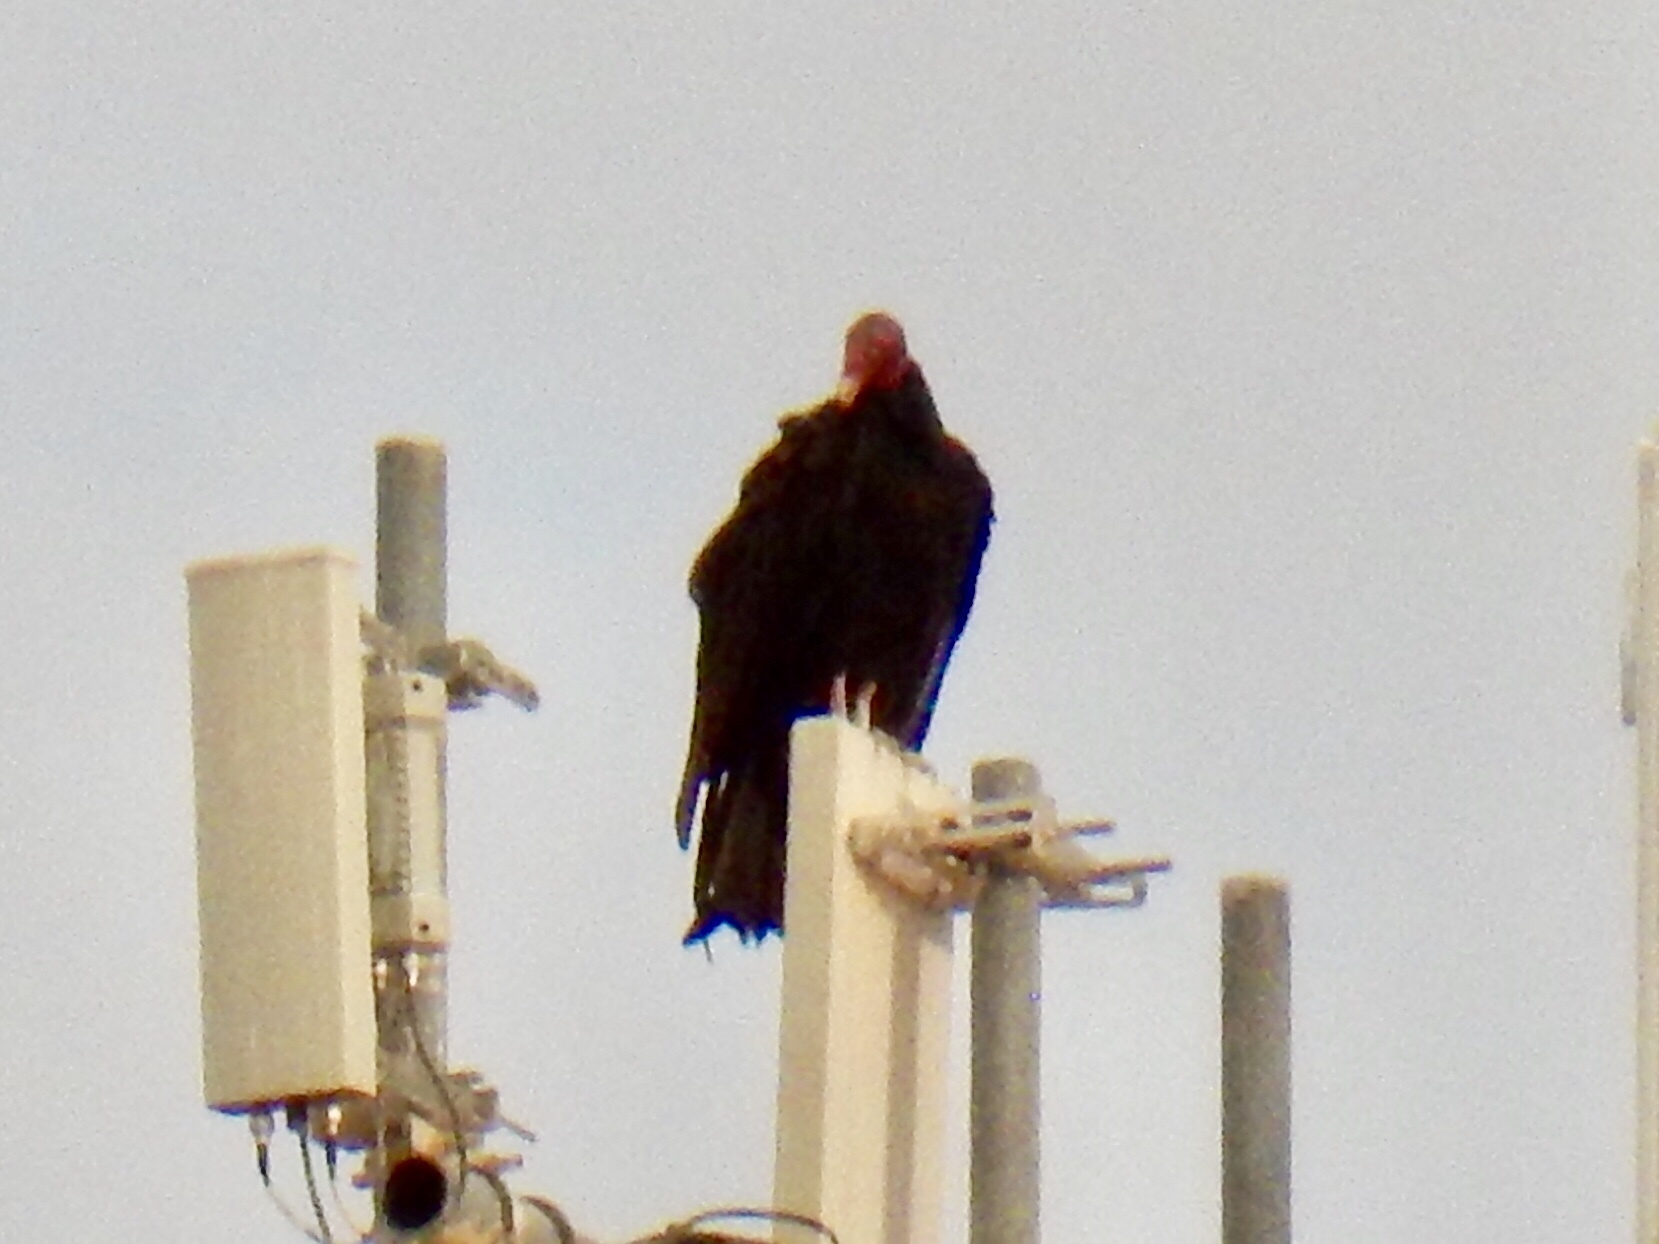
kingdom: Animalia
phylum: Chordata
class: Aves
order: Accipitriformes
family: Cathartidae
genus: Cathartes
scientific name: Cathartes aura
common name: Turkey vulture
